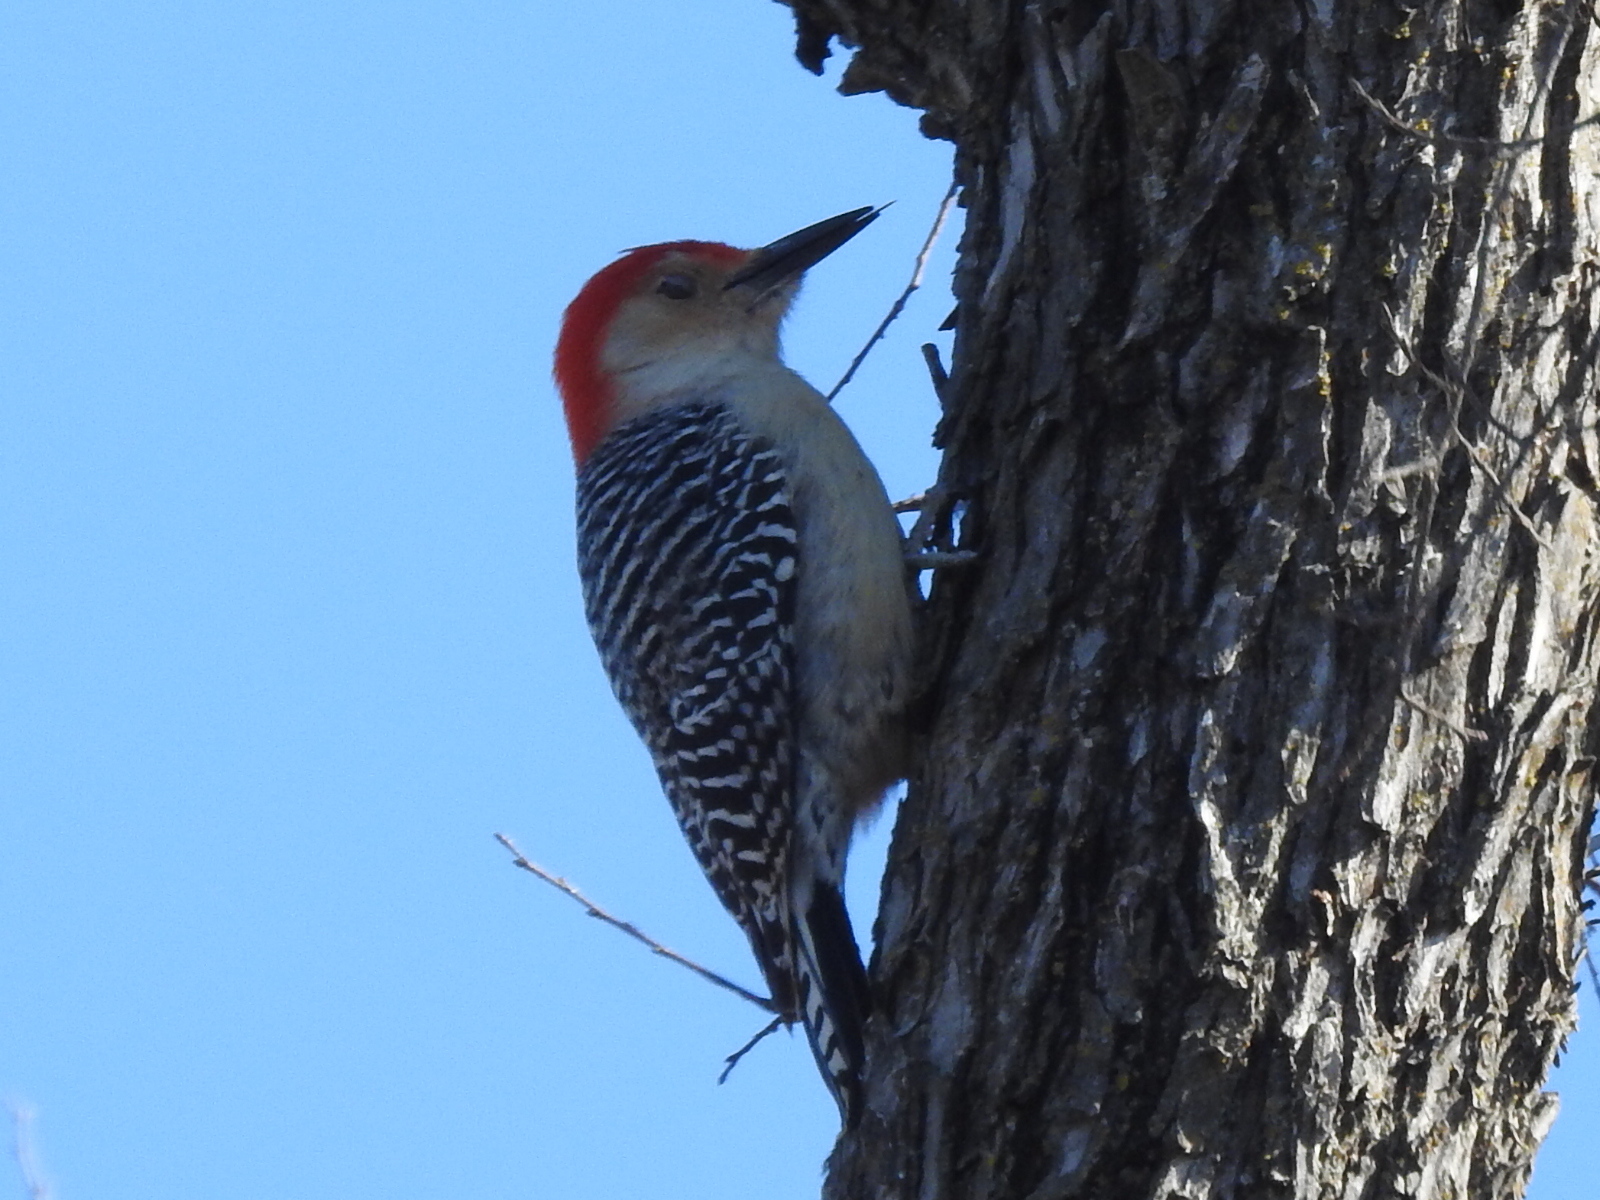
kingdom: Animalia
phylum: Chordata
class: Aves
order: Piciformes
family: Picidae
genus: Melanerpes
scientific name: Melanerpes carolinus
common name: Red-bellied woodpecker
